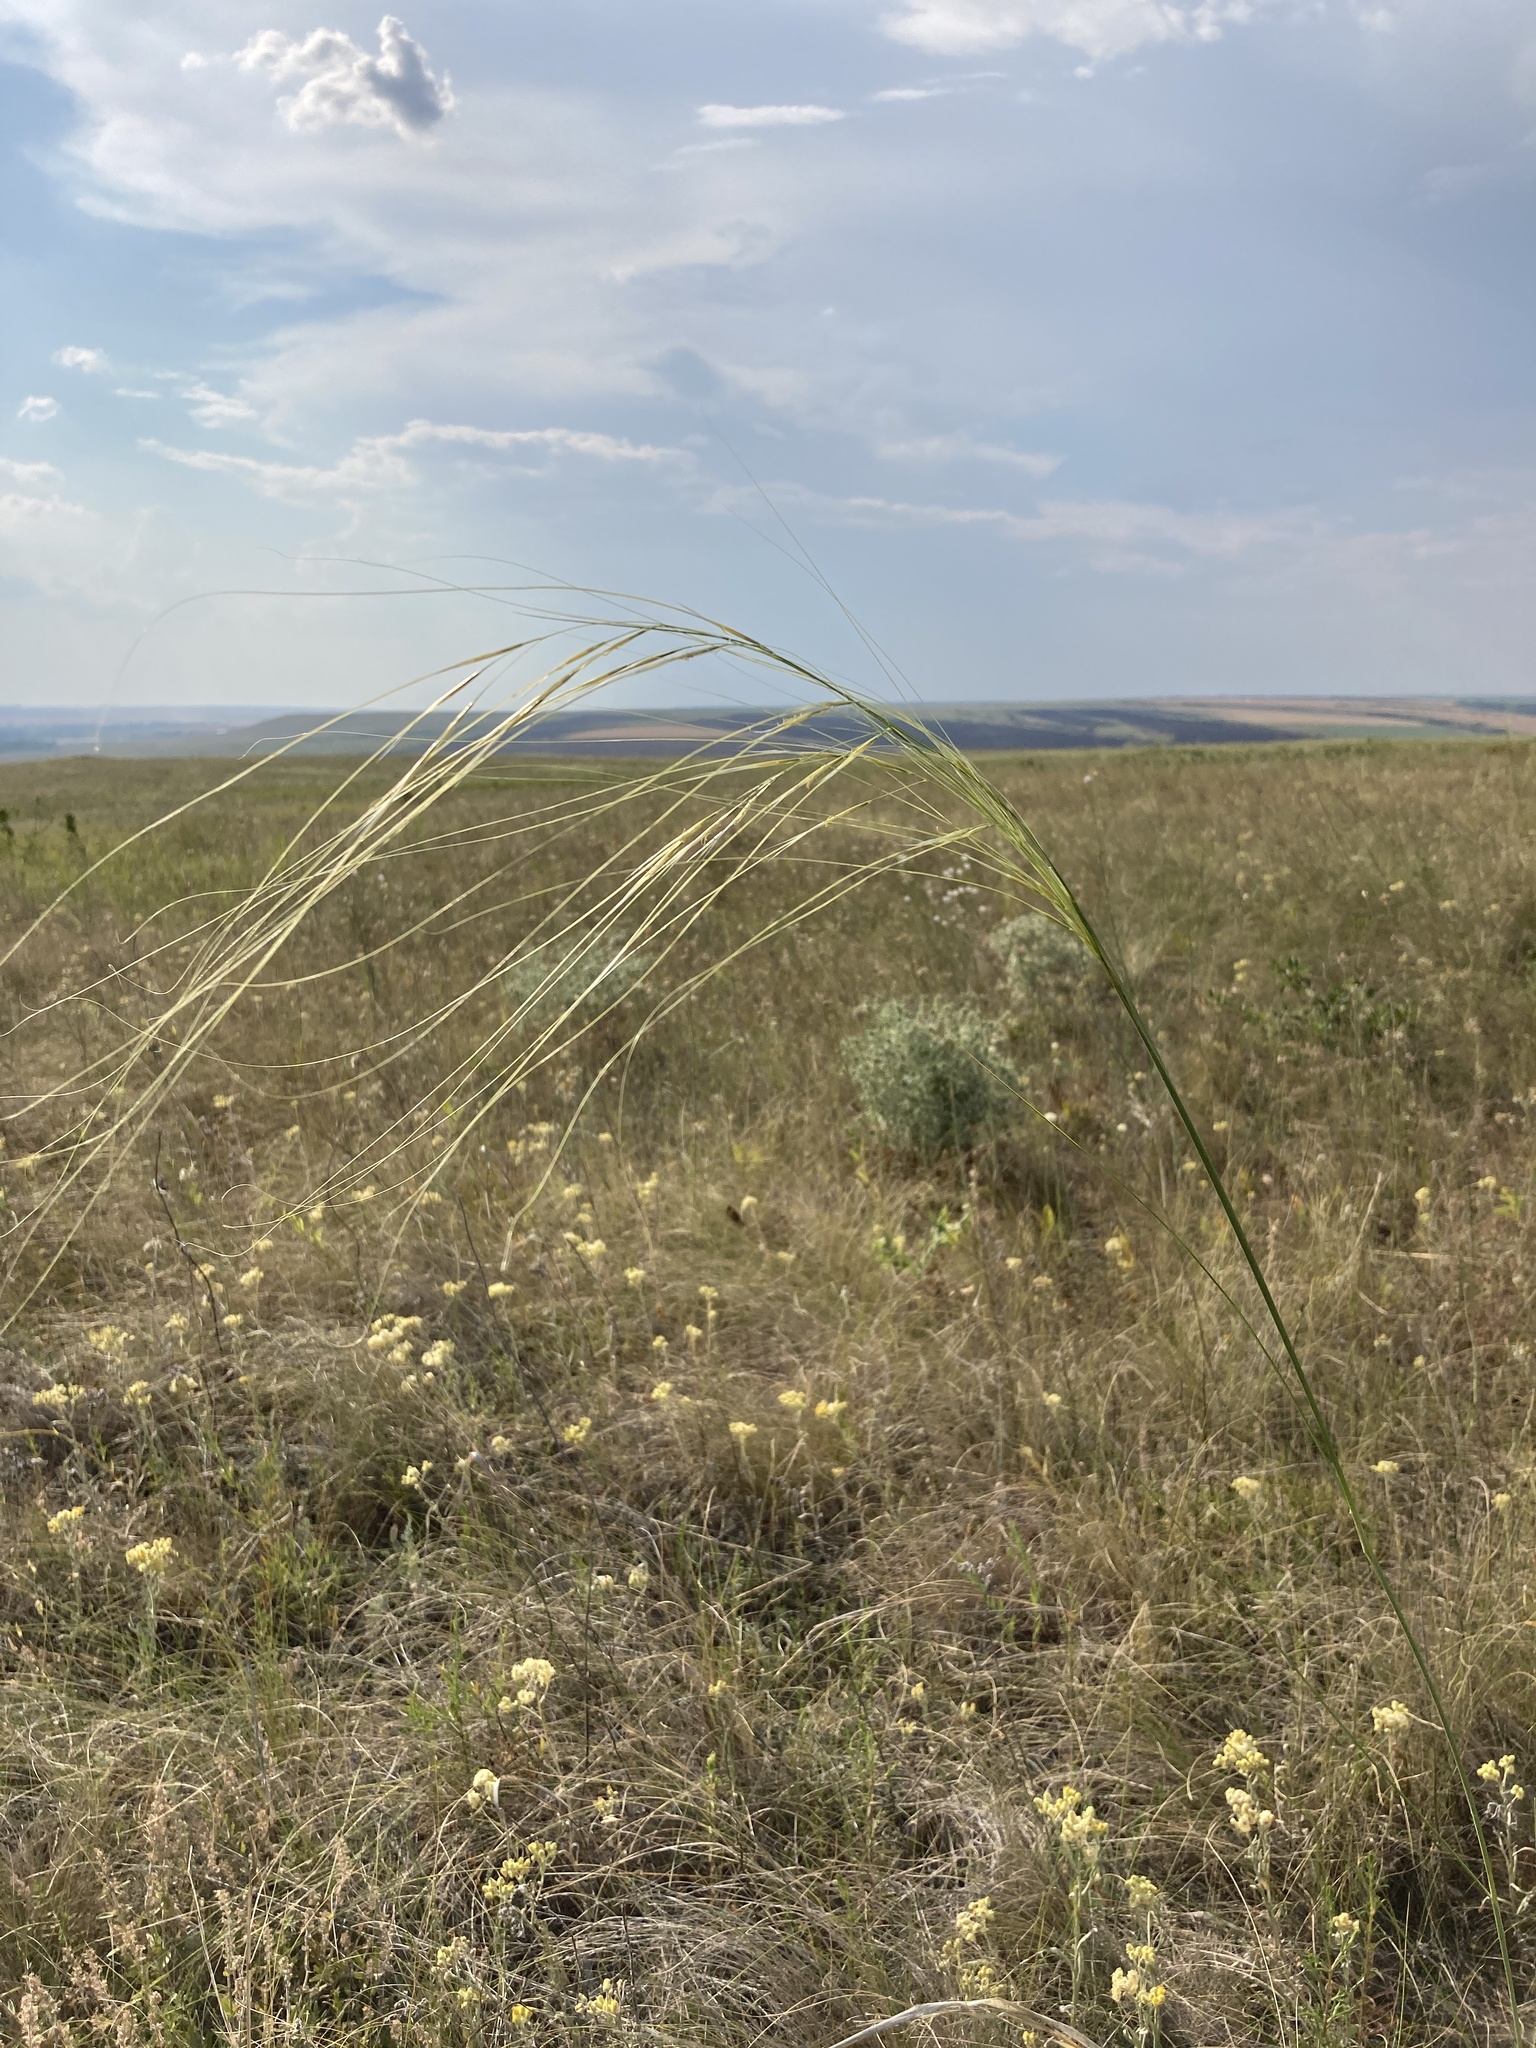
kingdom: Plantae
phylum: Tracheophyta
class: Liliopsida
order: Poales
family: Poaceae
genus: Stipa
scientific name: Stipa capillata
